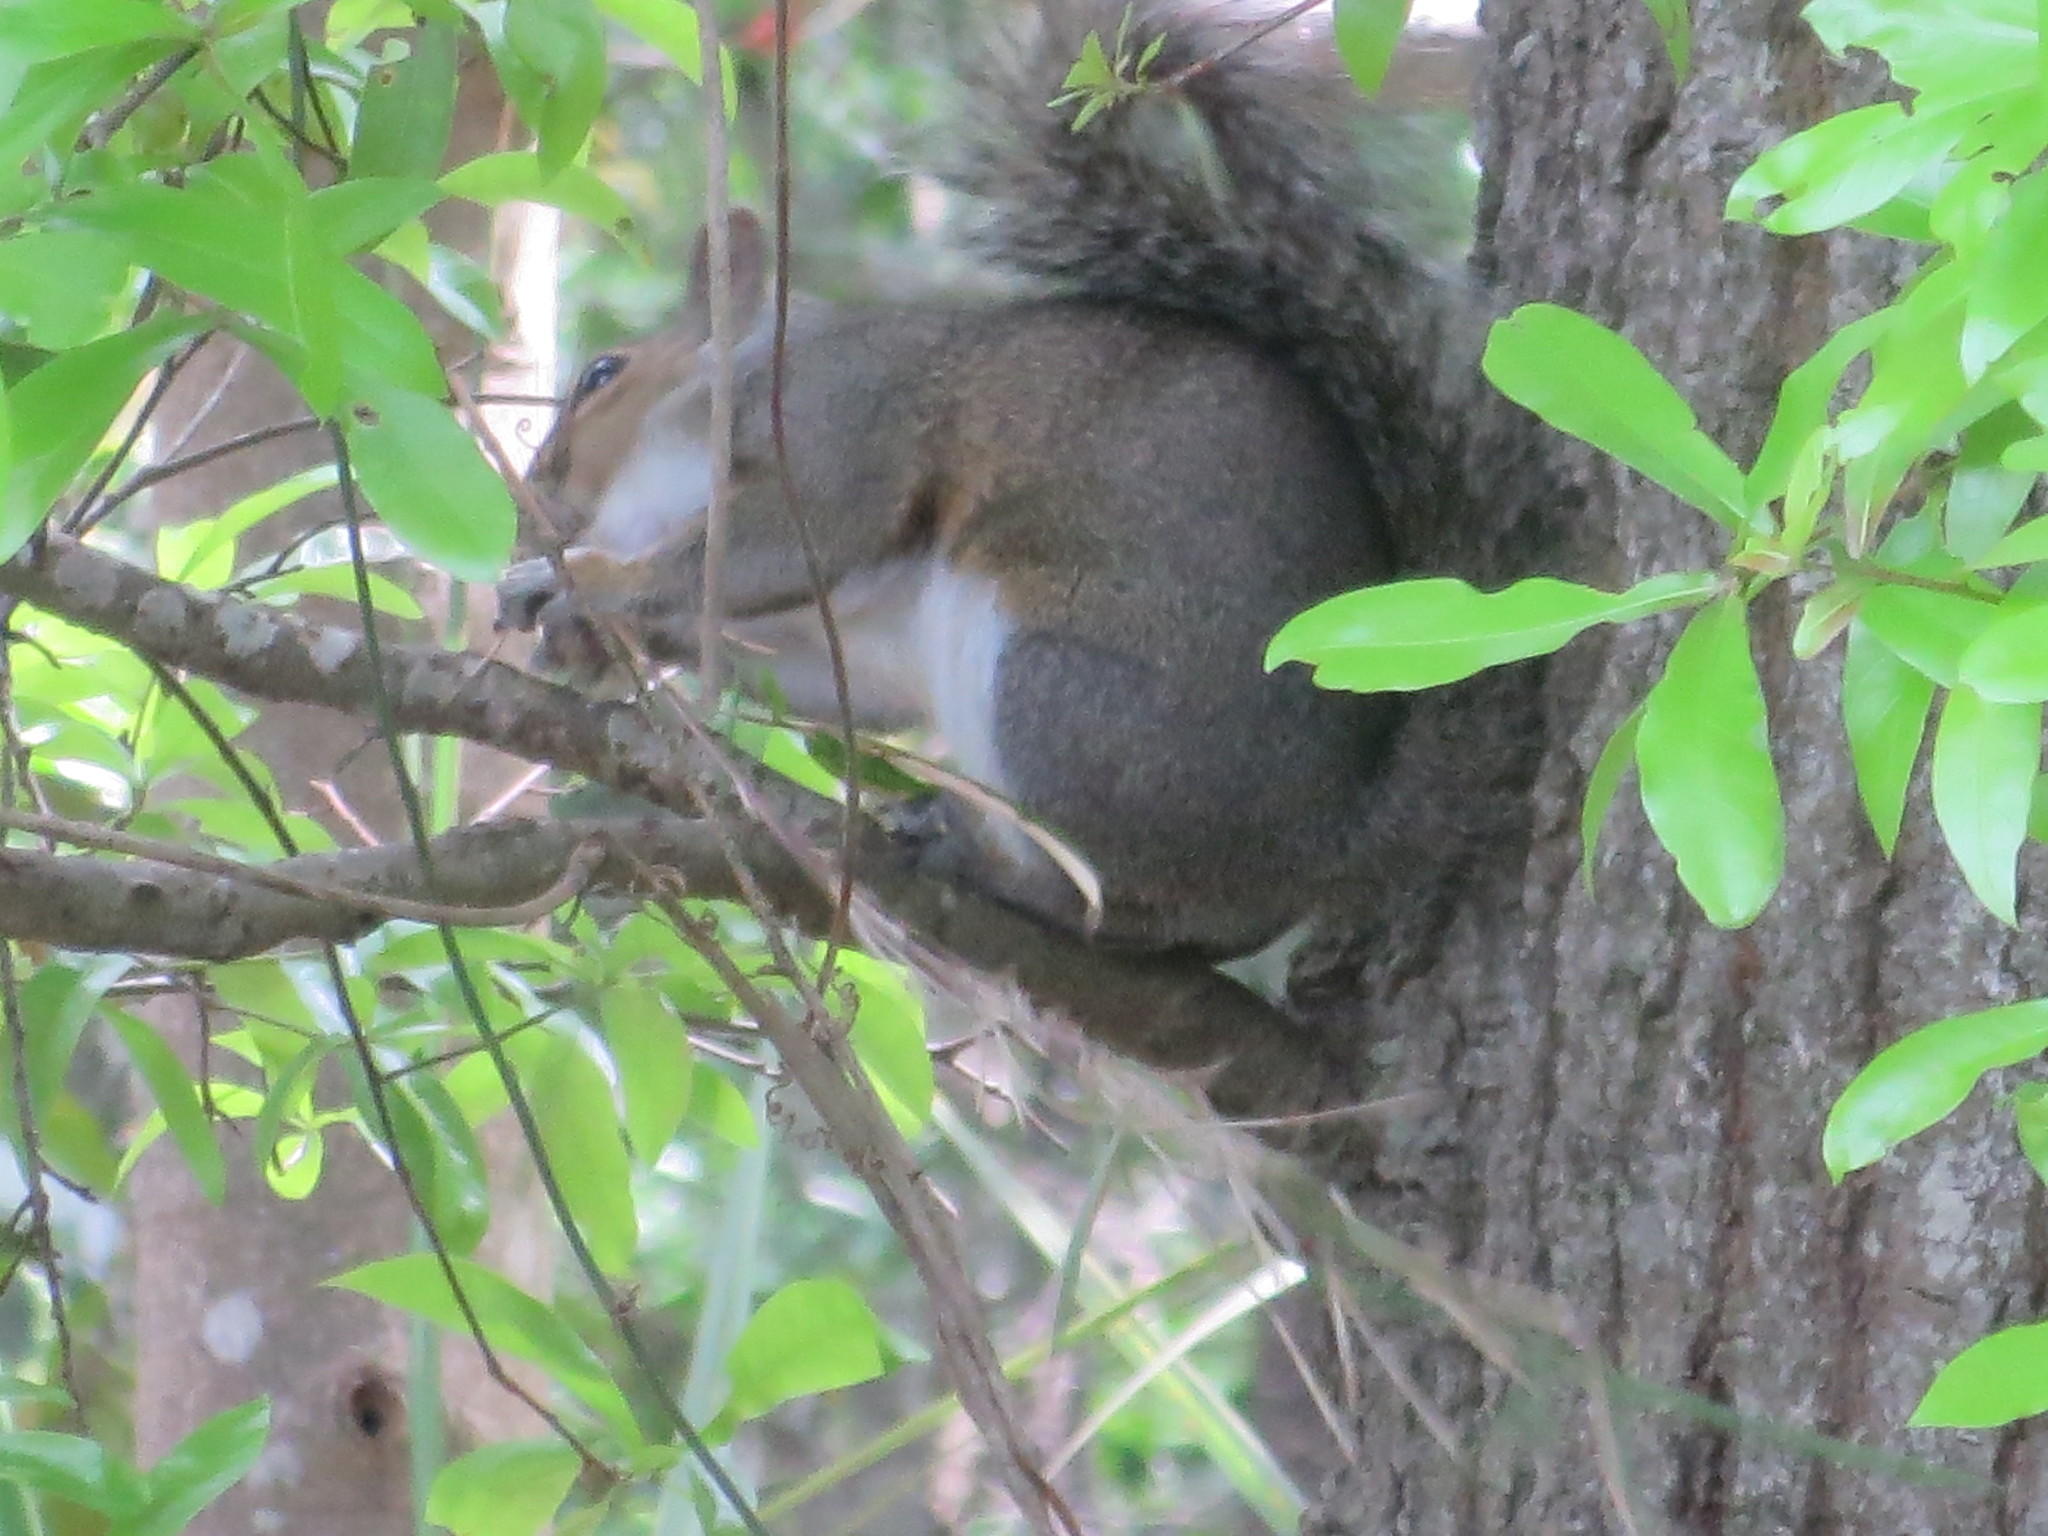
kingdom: Animalia
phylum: Chordata
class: Mammalia
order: Rodentia
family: Sciuridae
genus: Sciurus
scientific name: Sciurus carolinensis
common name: Eastern gray squirrel
